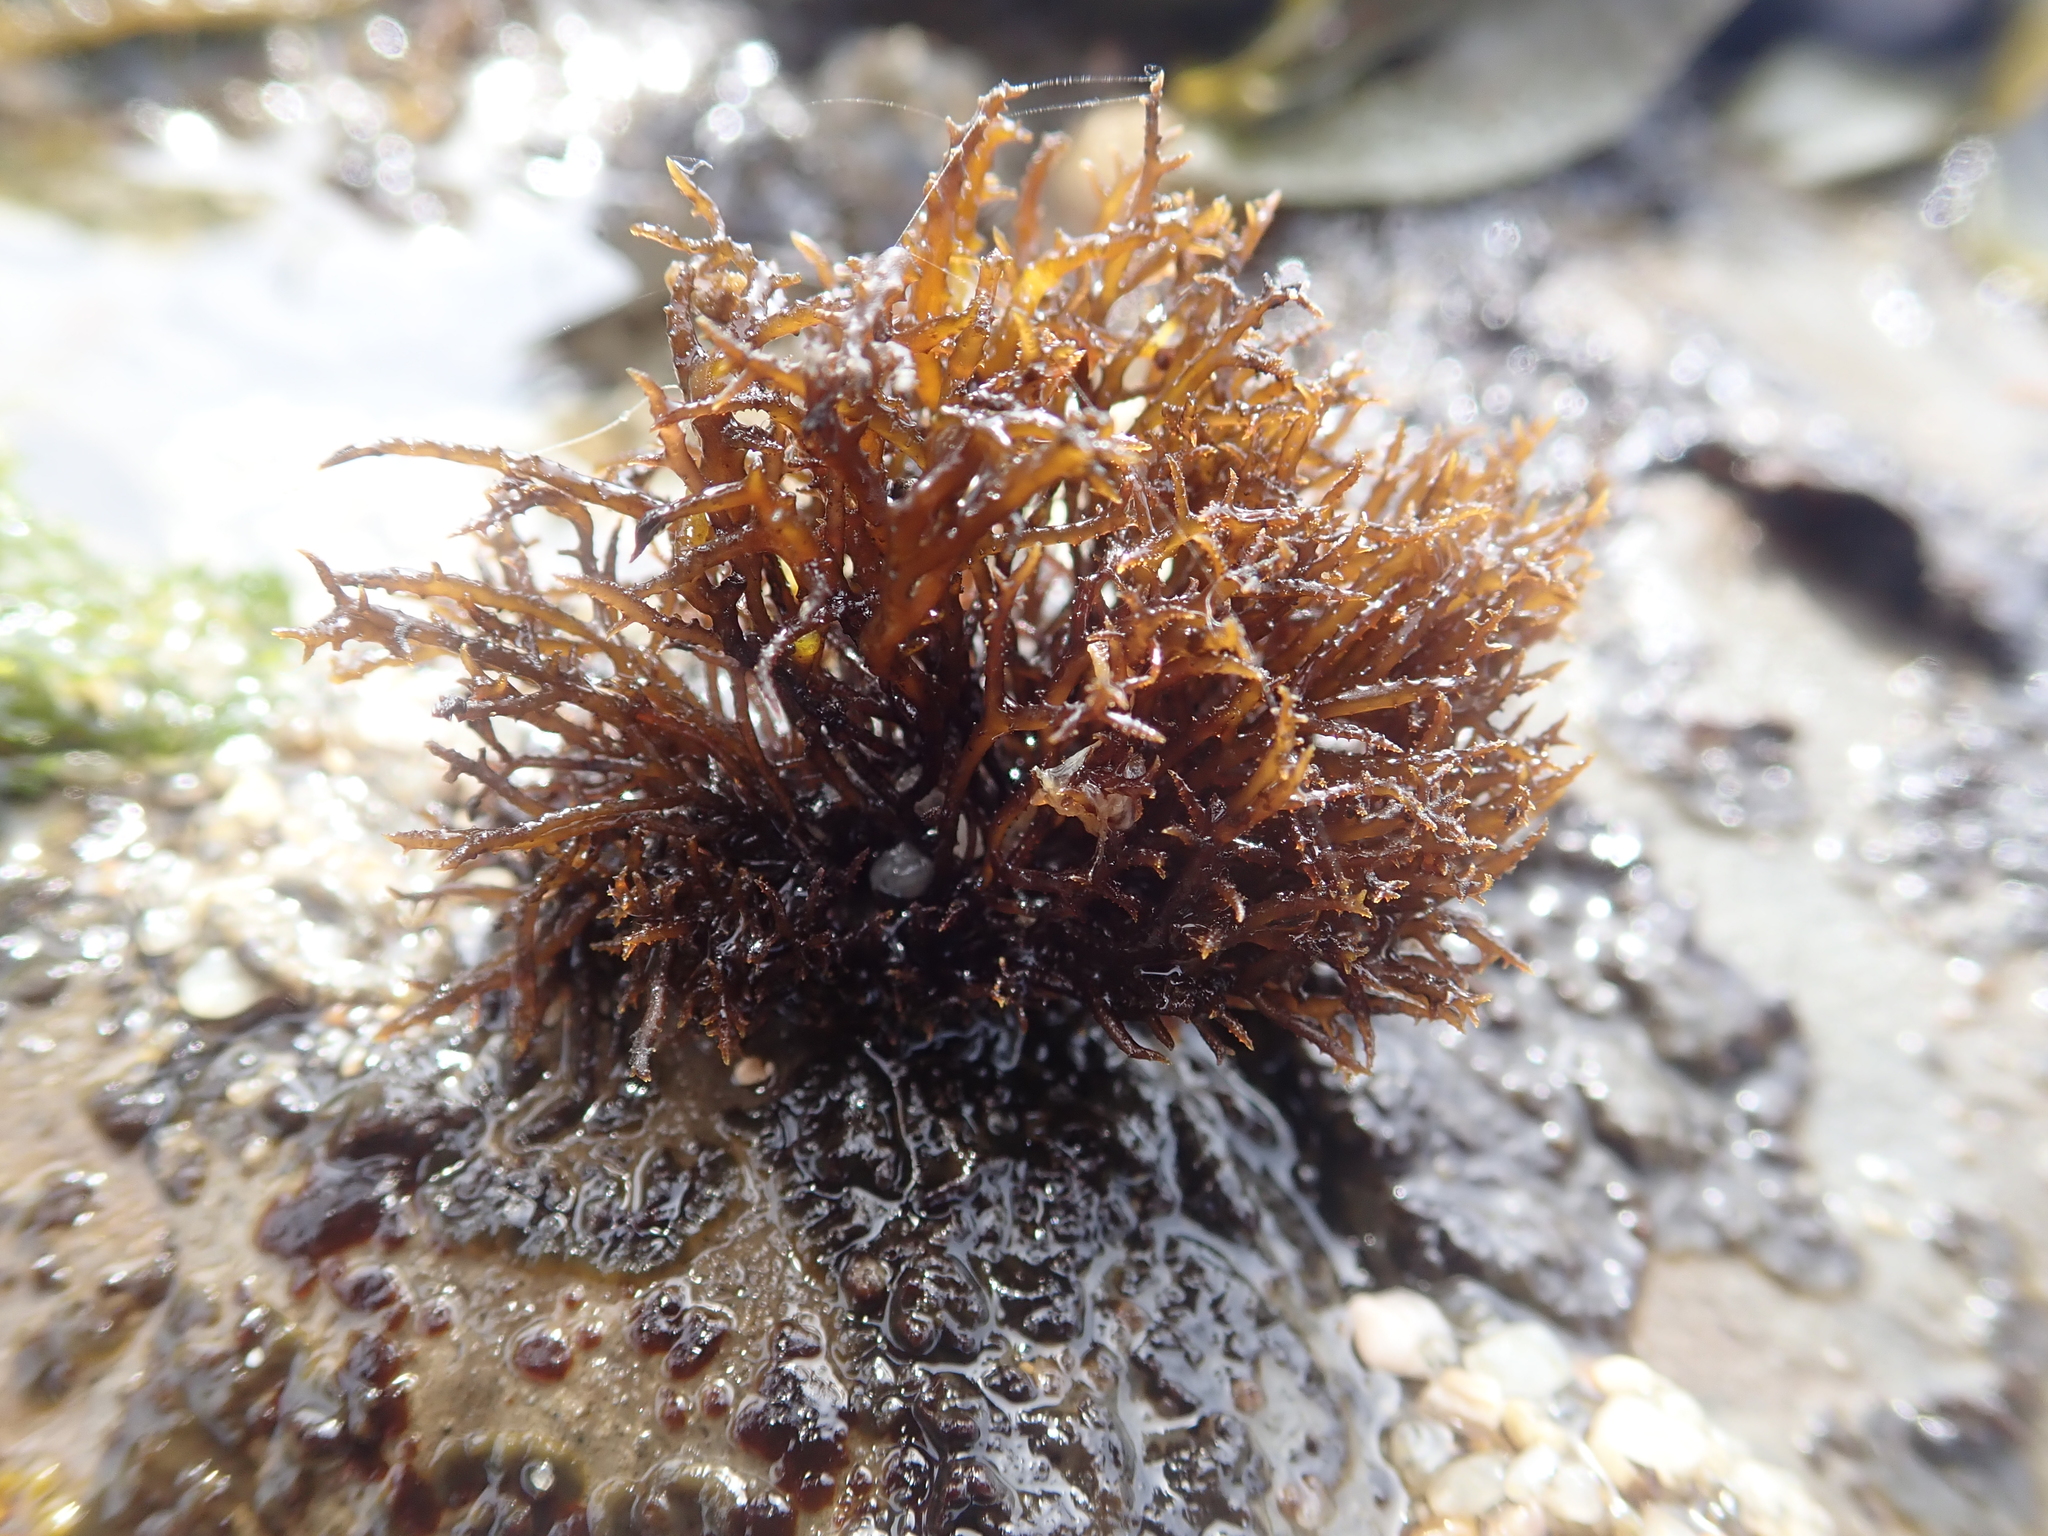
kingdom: Plantae
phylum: Rhodophyta
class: Florideophyceae
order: Gigartinales
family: Endocladiaceae
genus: Endocladia
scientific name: Endocladia muricata
